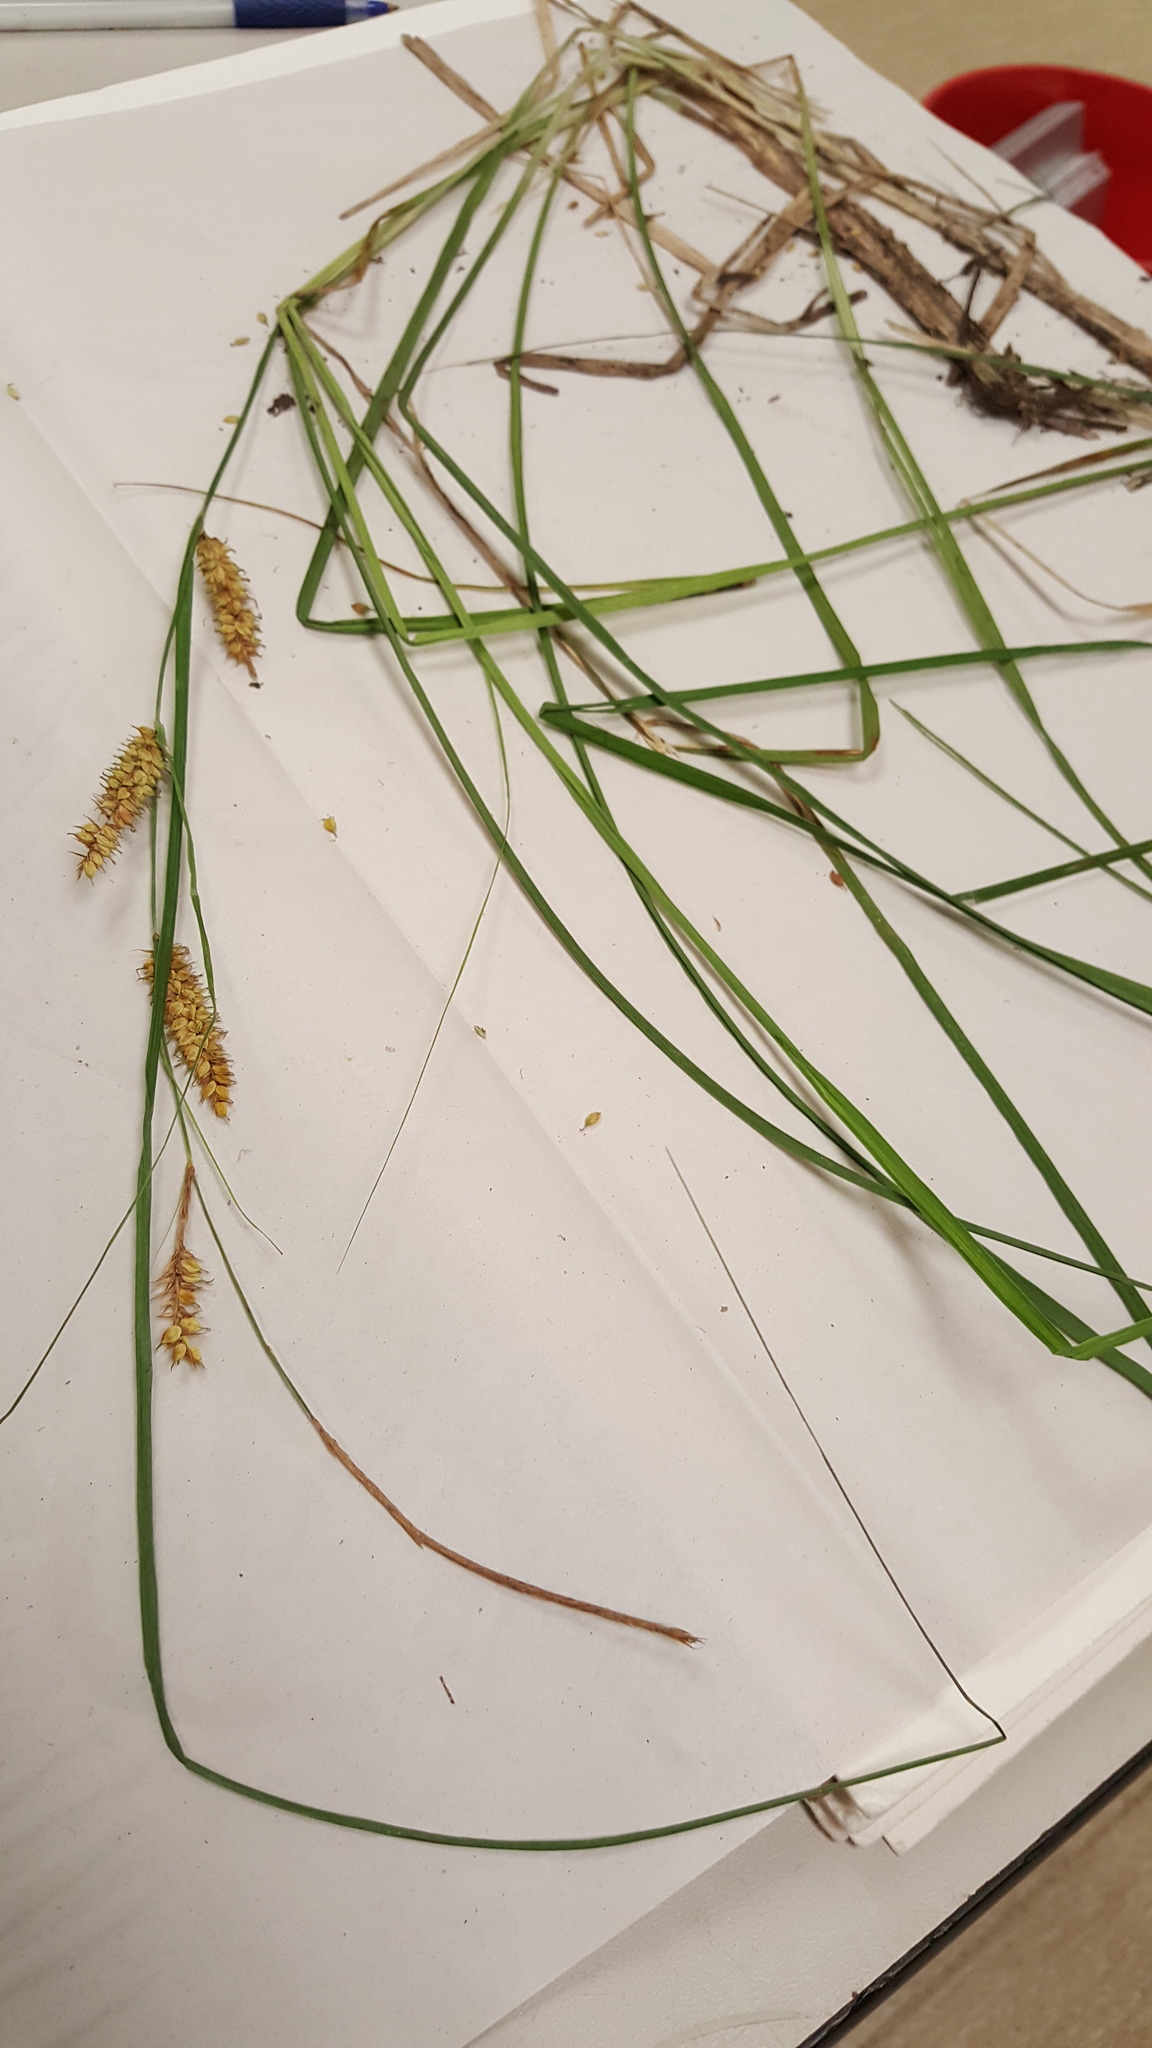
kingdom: Plantae
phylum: Tracheophyta
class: Liliopsida
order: Poales
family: Cyperaceae
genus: Carex
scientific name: Carex utriculata
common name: Beaked sedge
